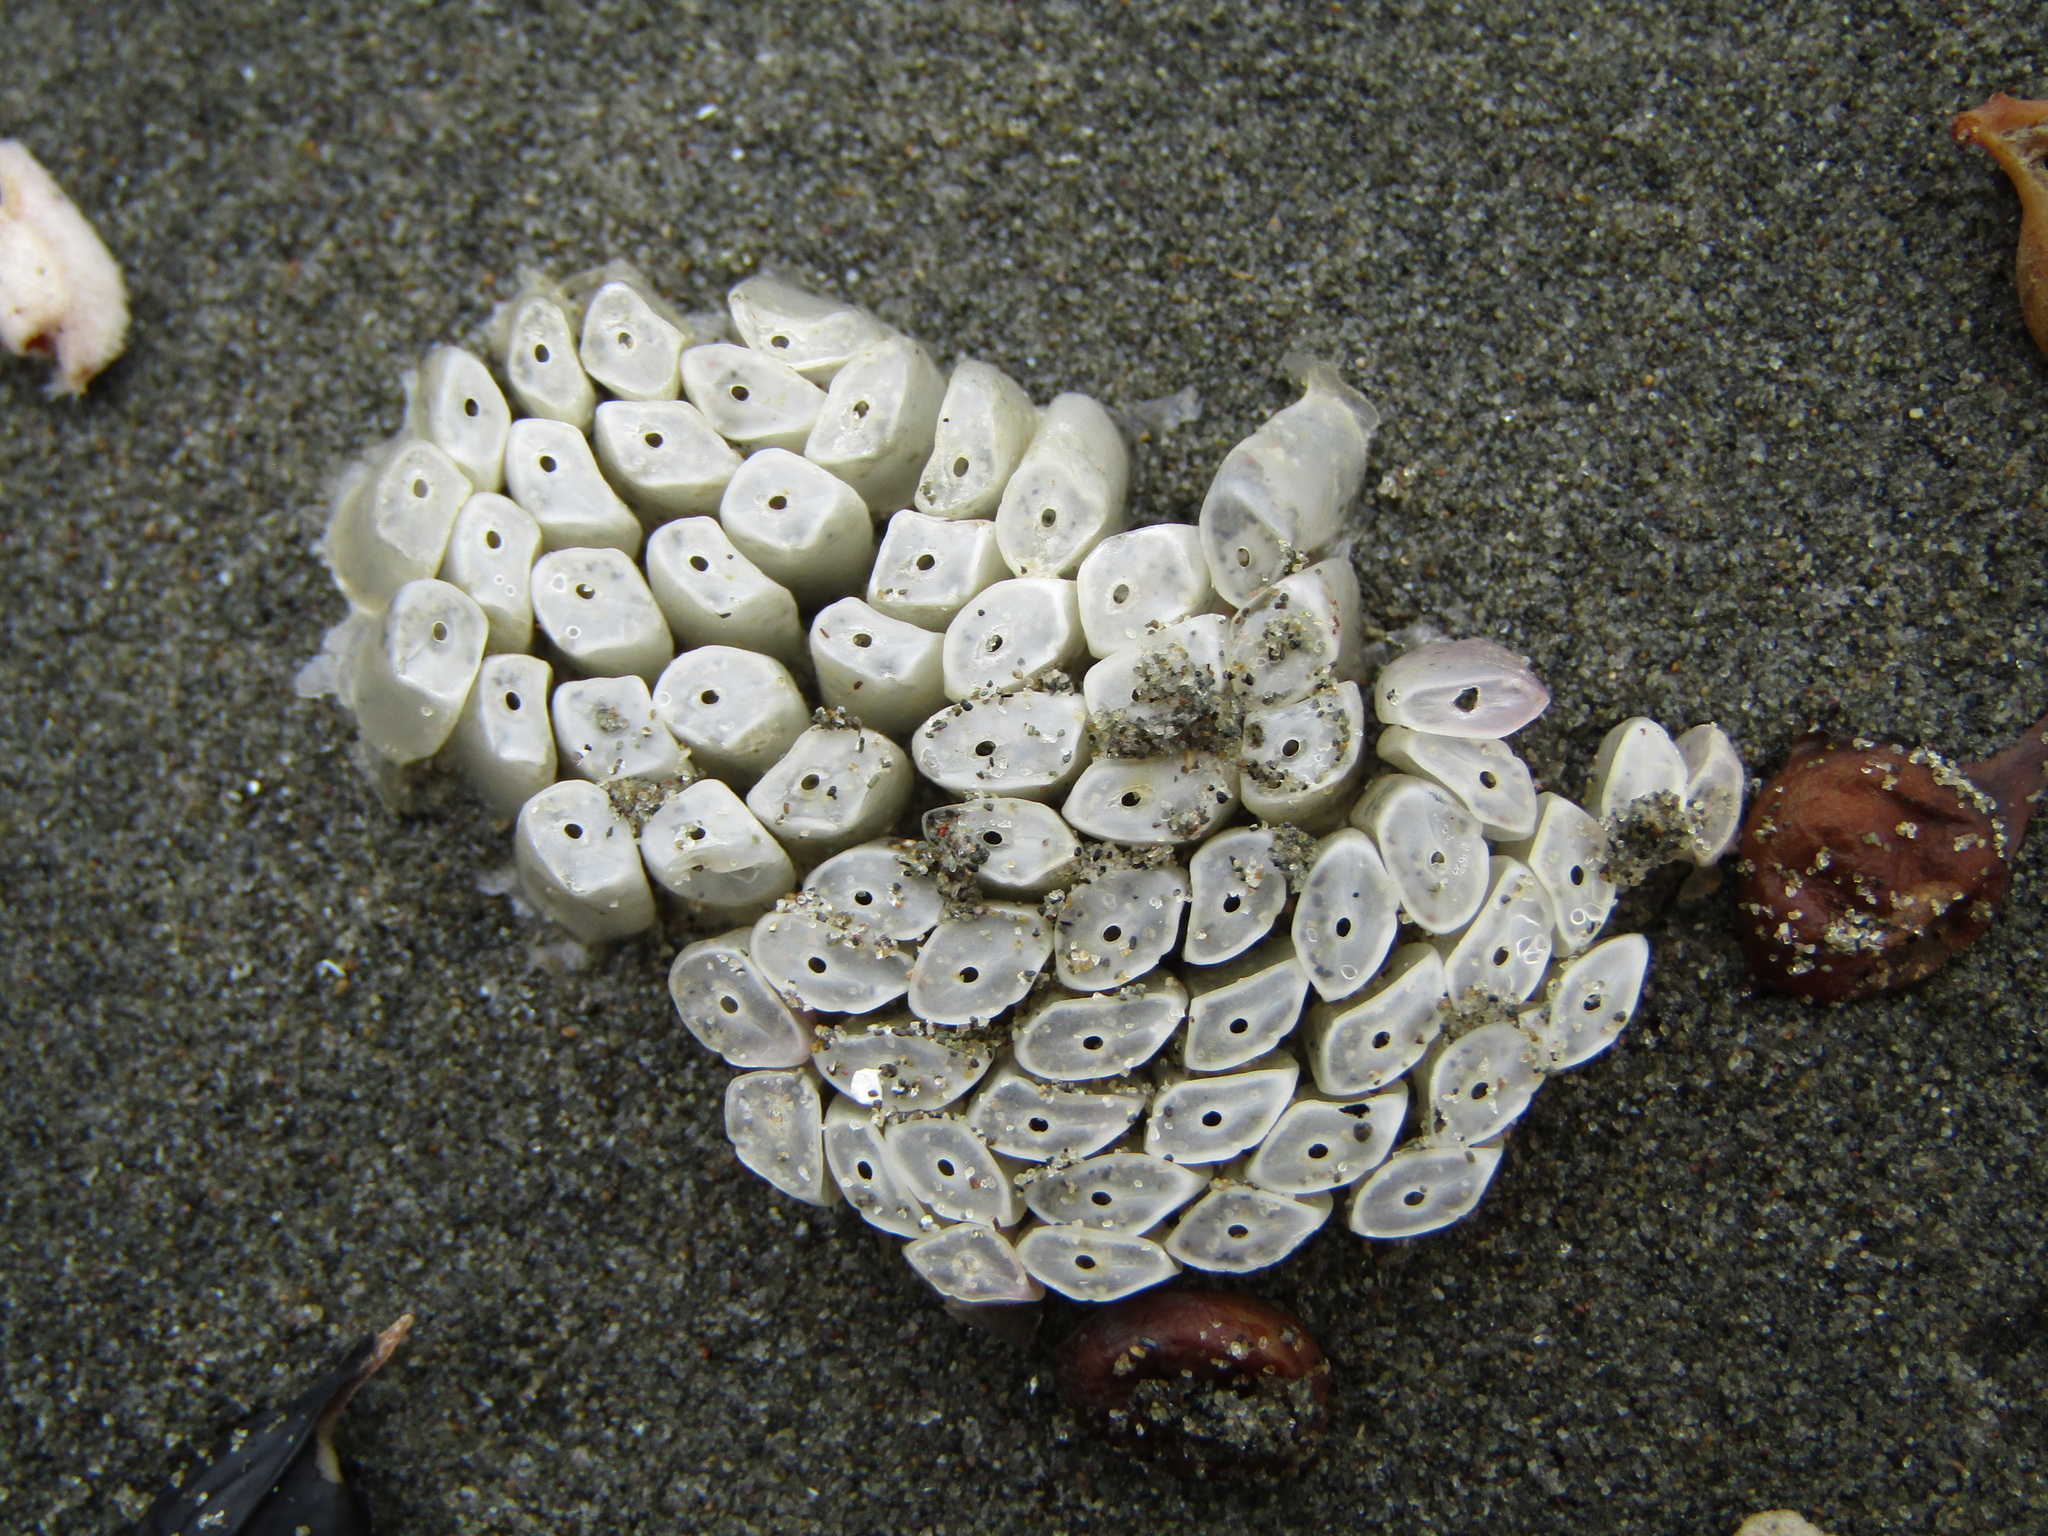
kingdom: Animalia
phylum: Mollusca
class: Gastropoda
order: Neogastropoda
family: Muricidae
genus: Dicathais
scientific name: Dicathais orbita
